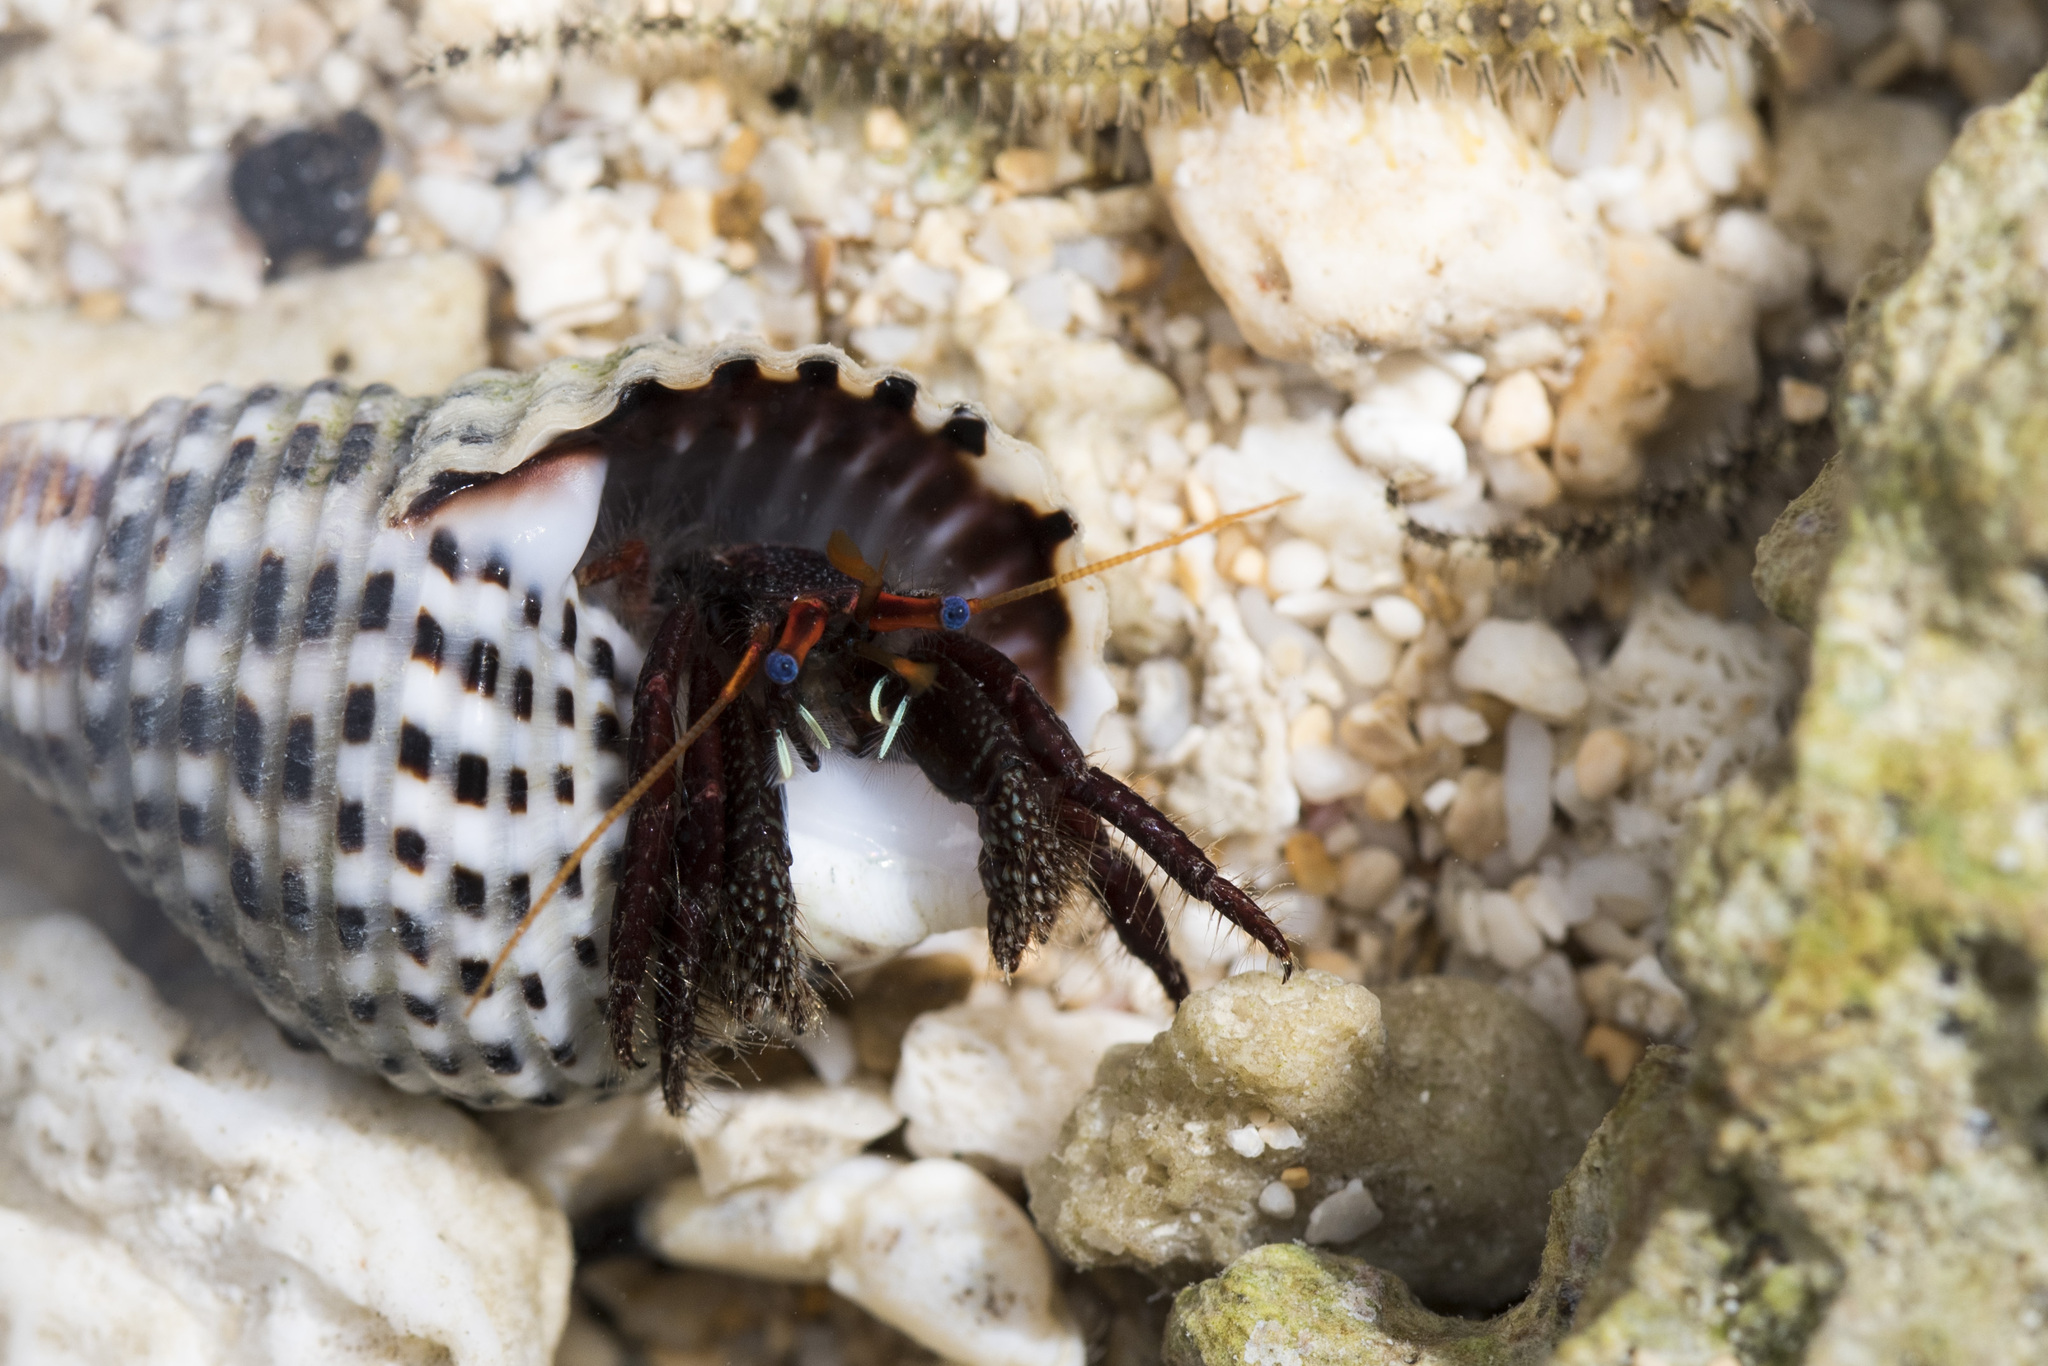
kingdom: Animalia
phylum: Arthropoda
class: Malacostraca
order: Decapoda
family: Diogenidae
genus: Clibanarius
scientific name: Clibanarius corallinus
